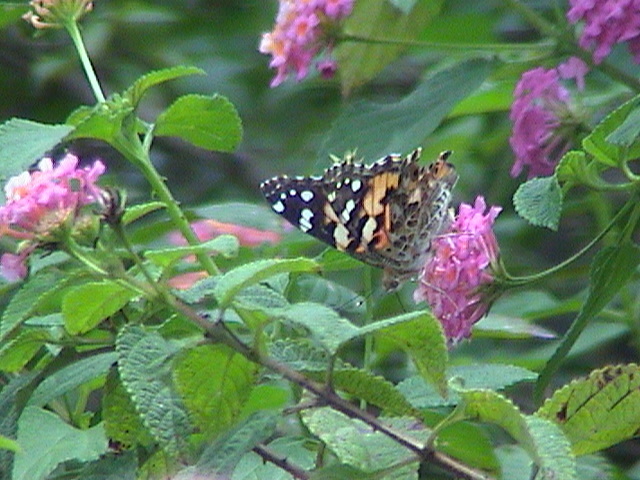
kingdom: Animalia
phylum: Arthropoda
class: Insecta
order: Lepidoptera
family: Nymphalidae
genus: Vanessa
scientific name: Vanessa cardui
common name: Painted lady
